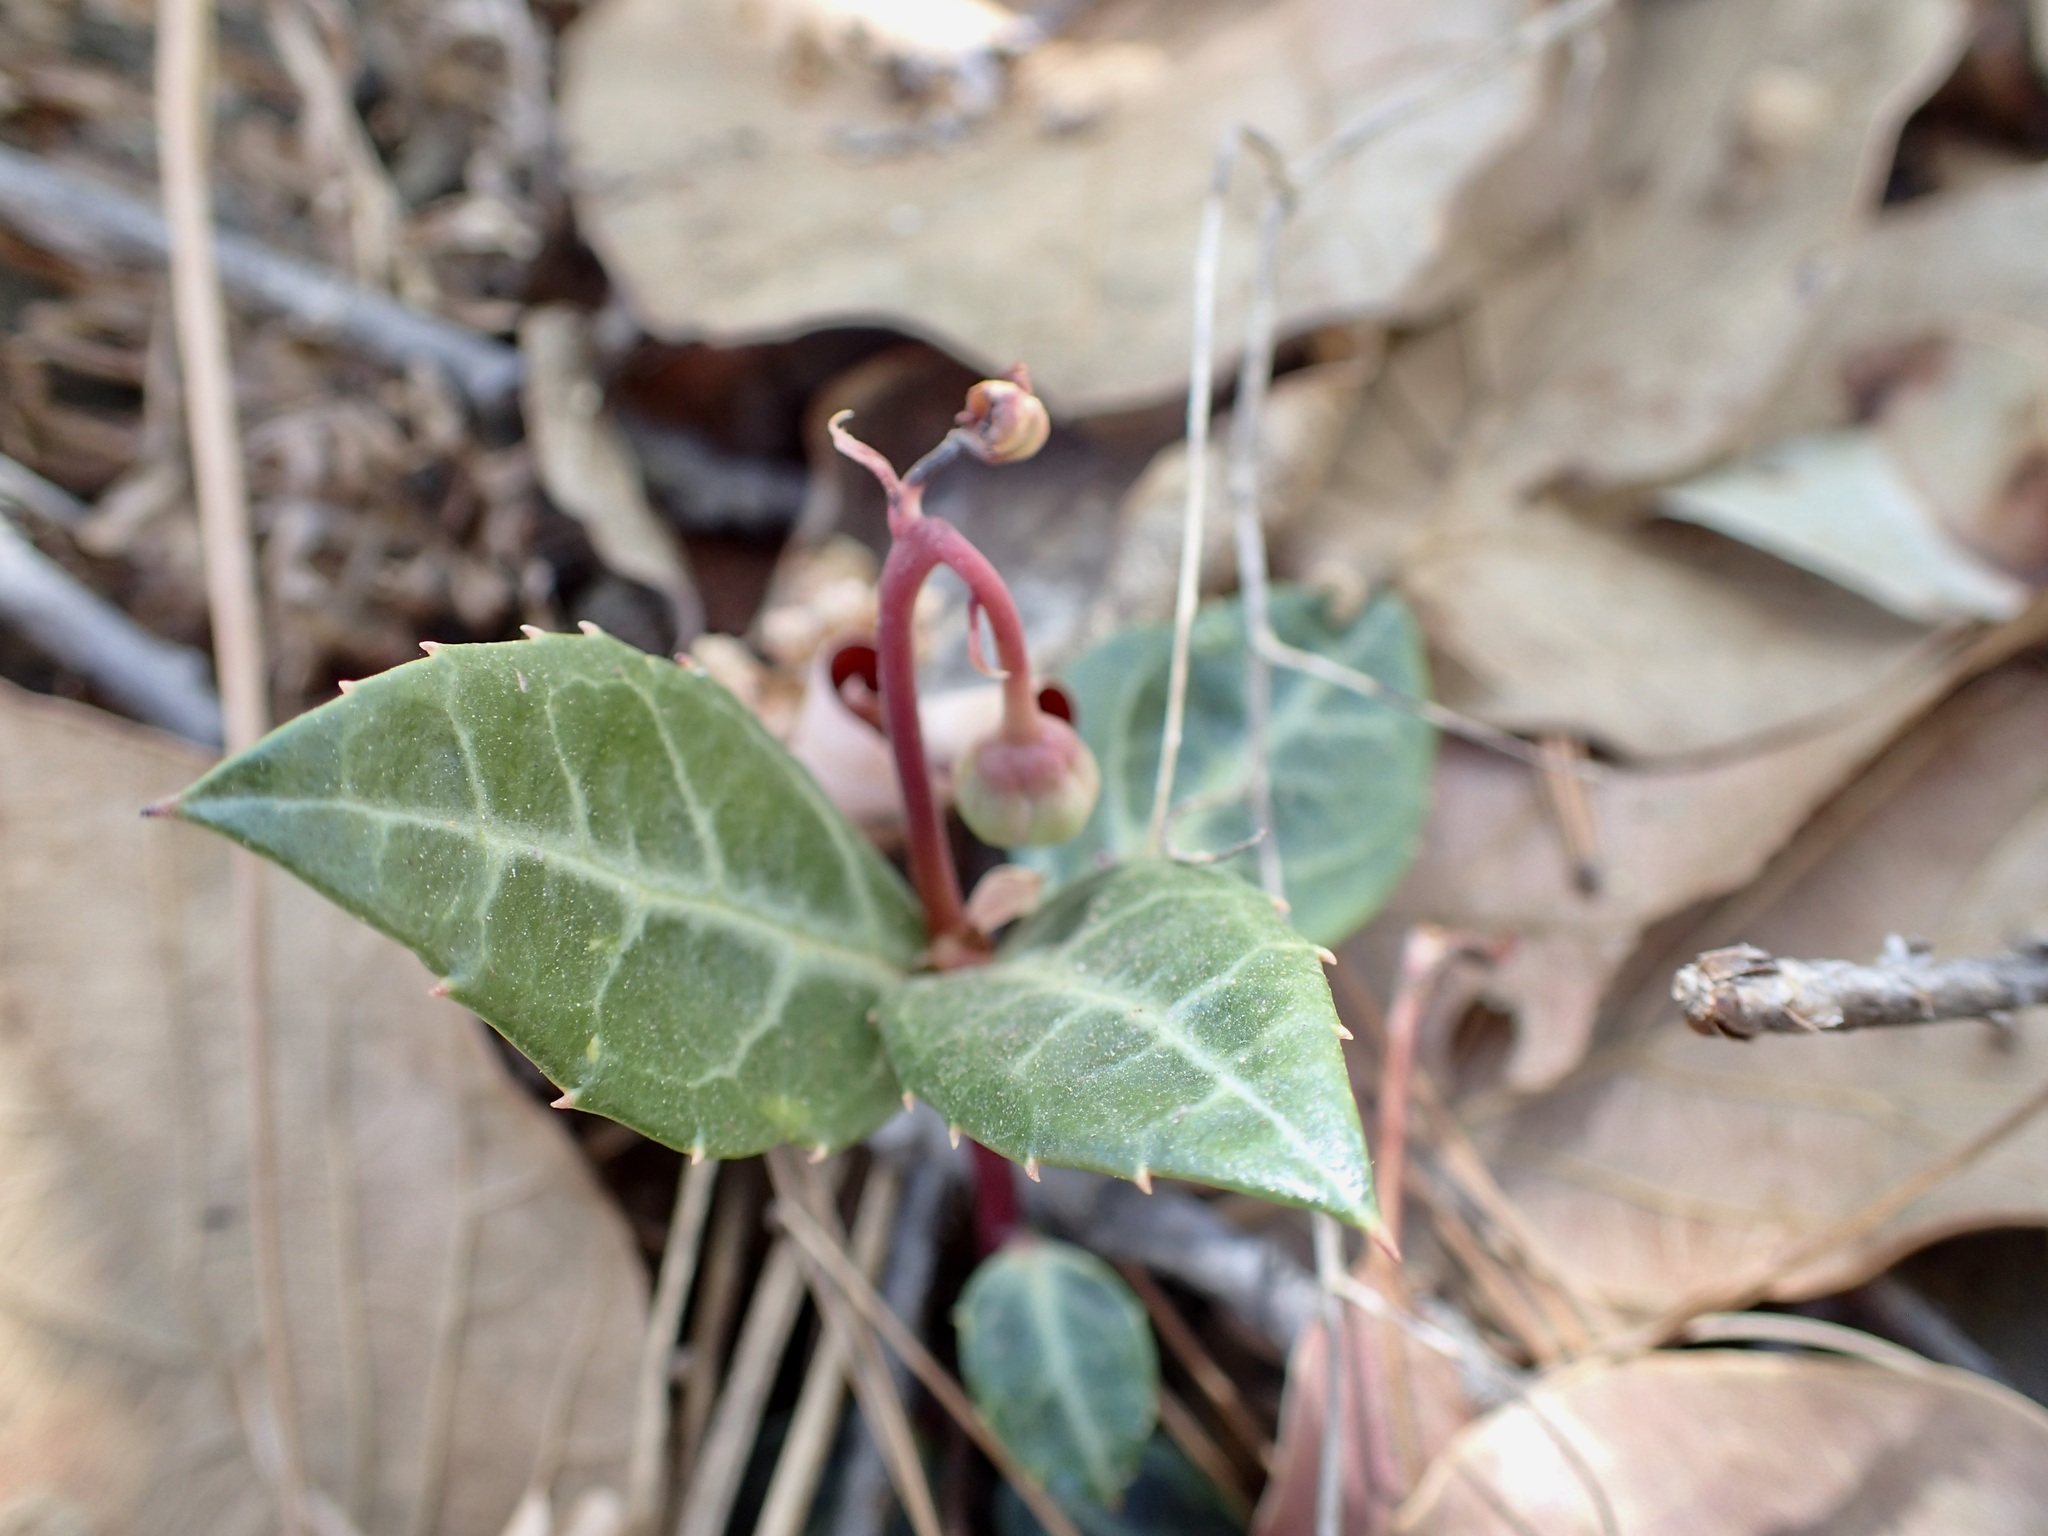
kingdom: Plantae
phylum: Tracheophyta
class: Magnoliopsida
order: Ericales
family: Ericaceae
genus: Chimaphila
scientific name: Chimaphila maculata
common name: Spotted pipsissewa
